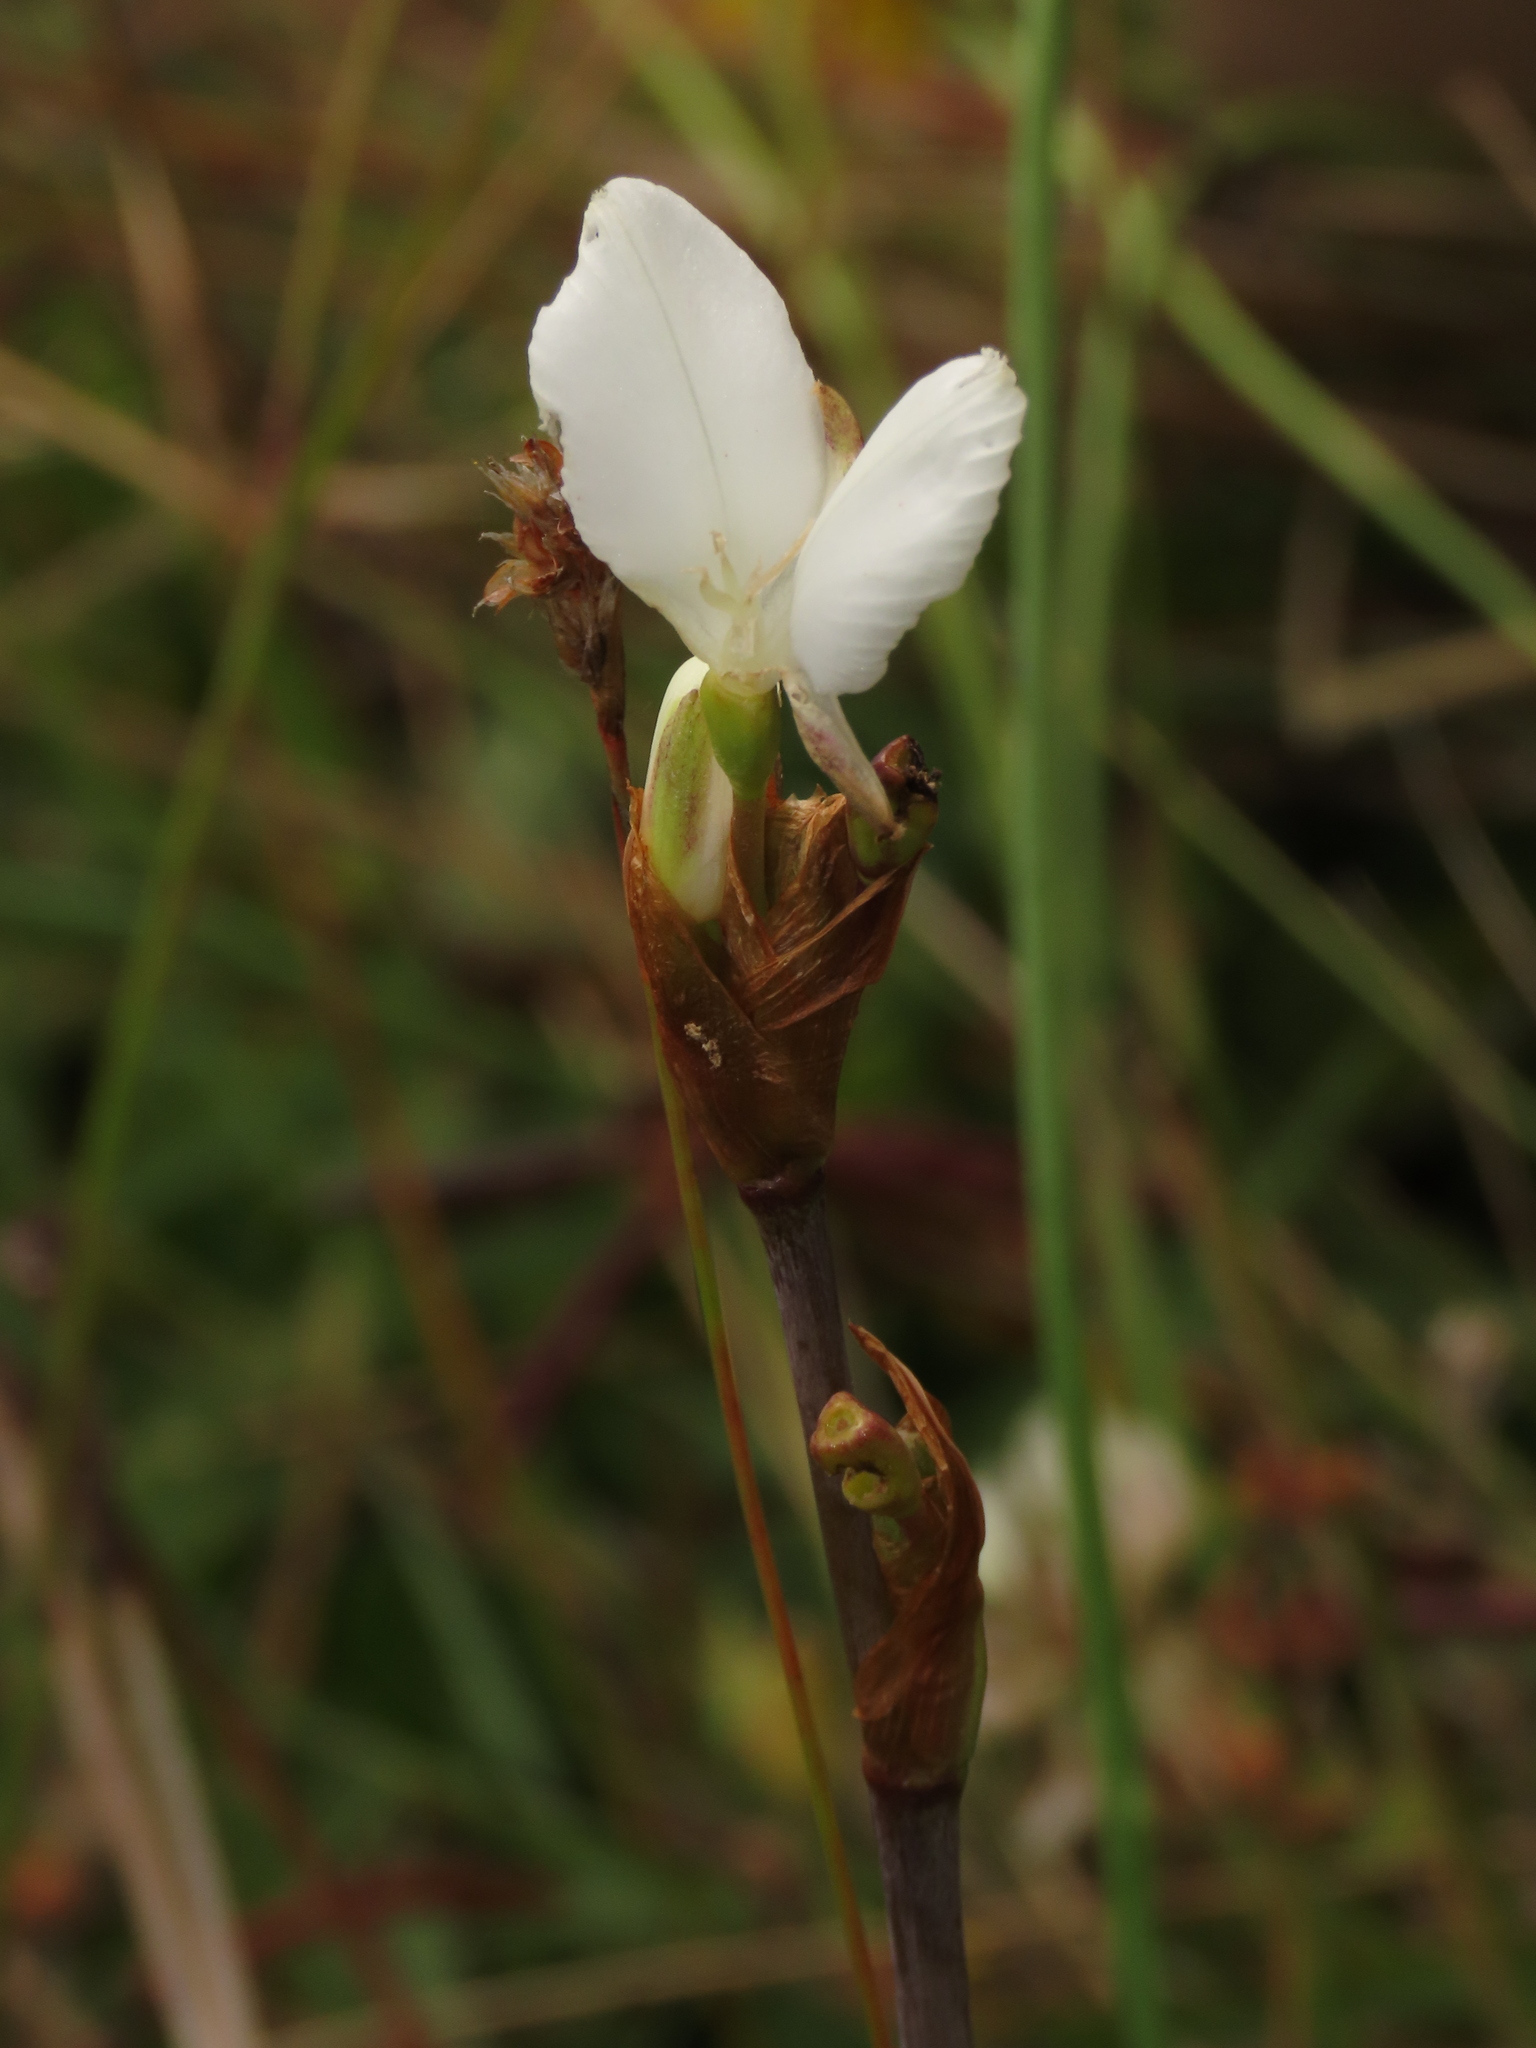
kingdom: Plantae
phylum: Tracheophyta
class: Liliopsida
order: Asparagales
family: Iridaceae
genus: Libertia
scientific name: Libertia chilensis
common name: Satin flower
